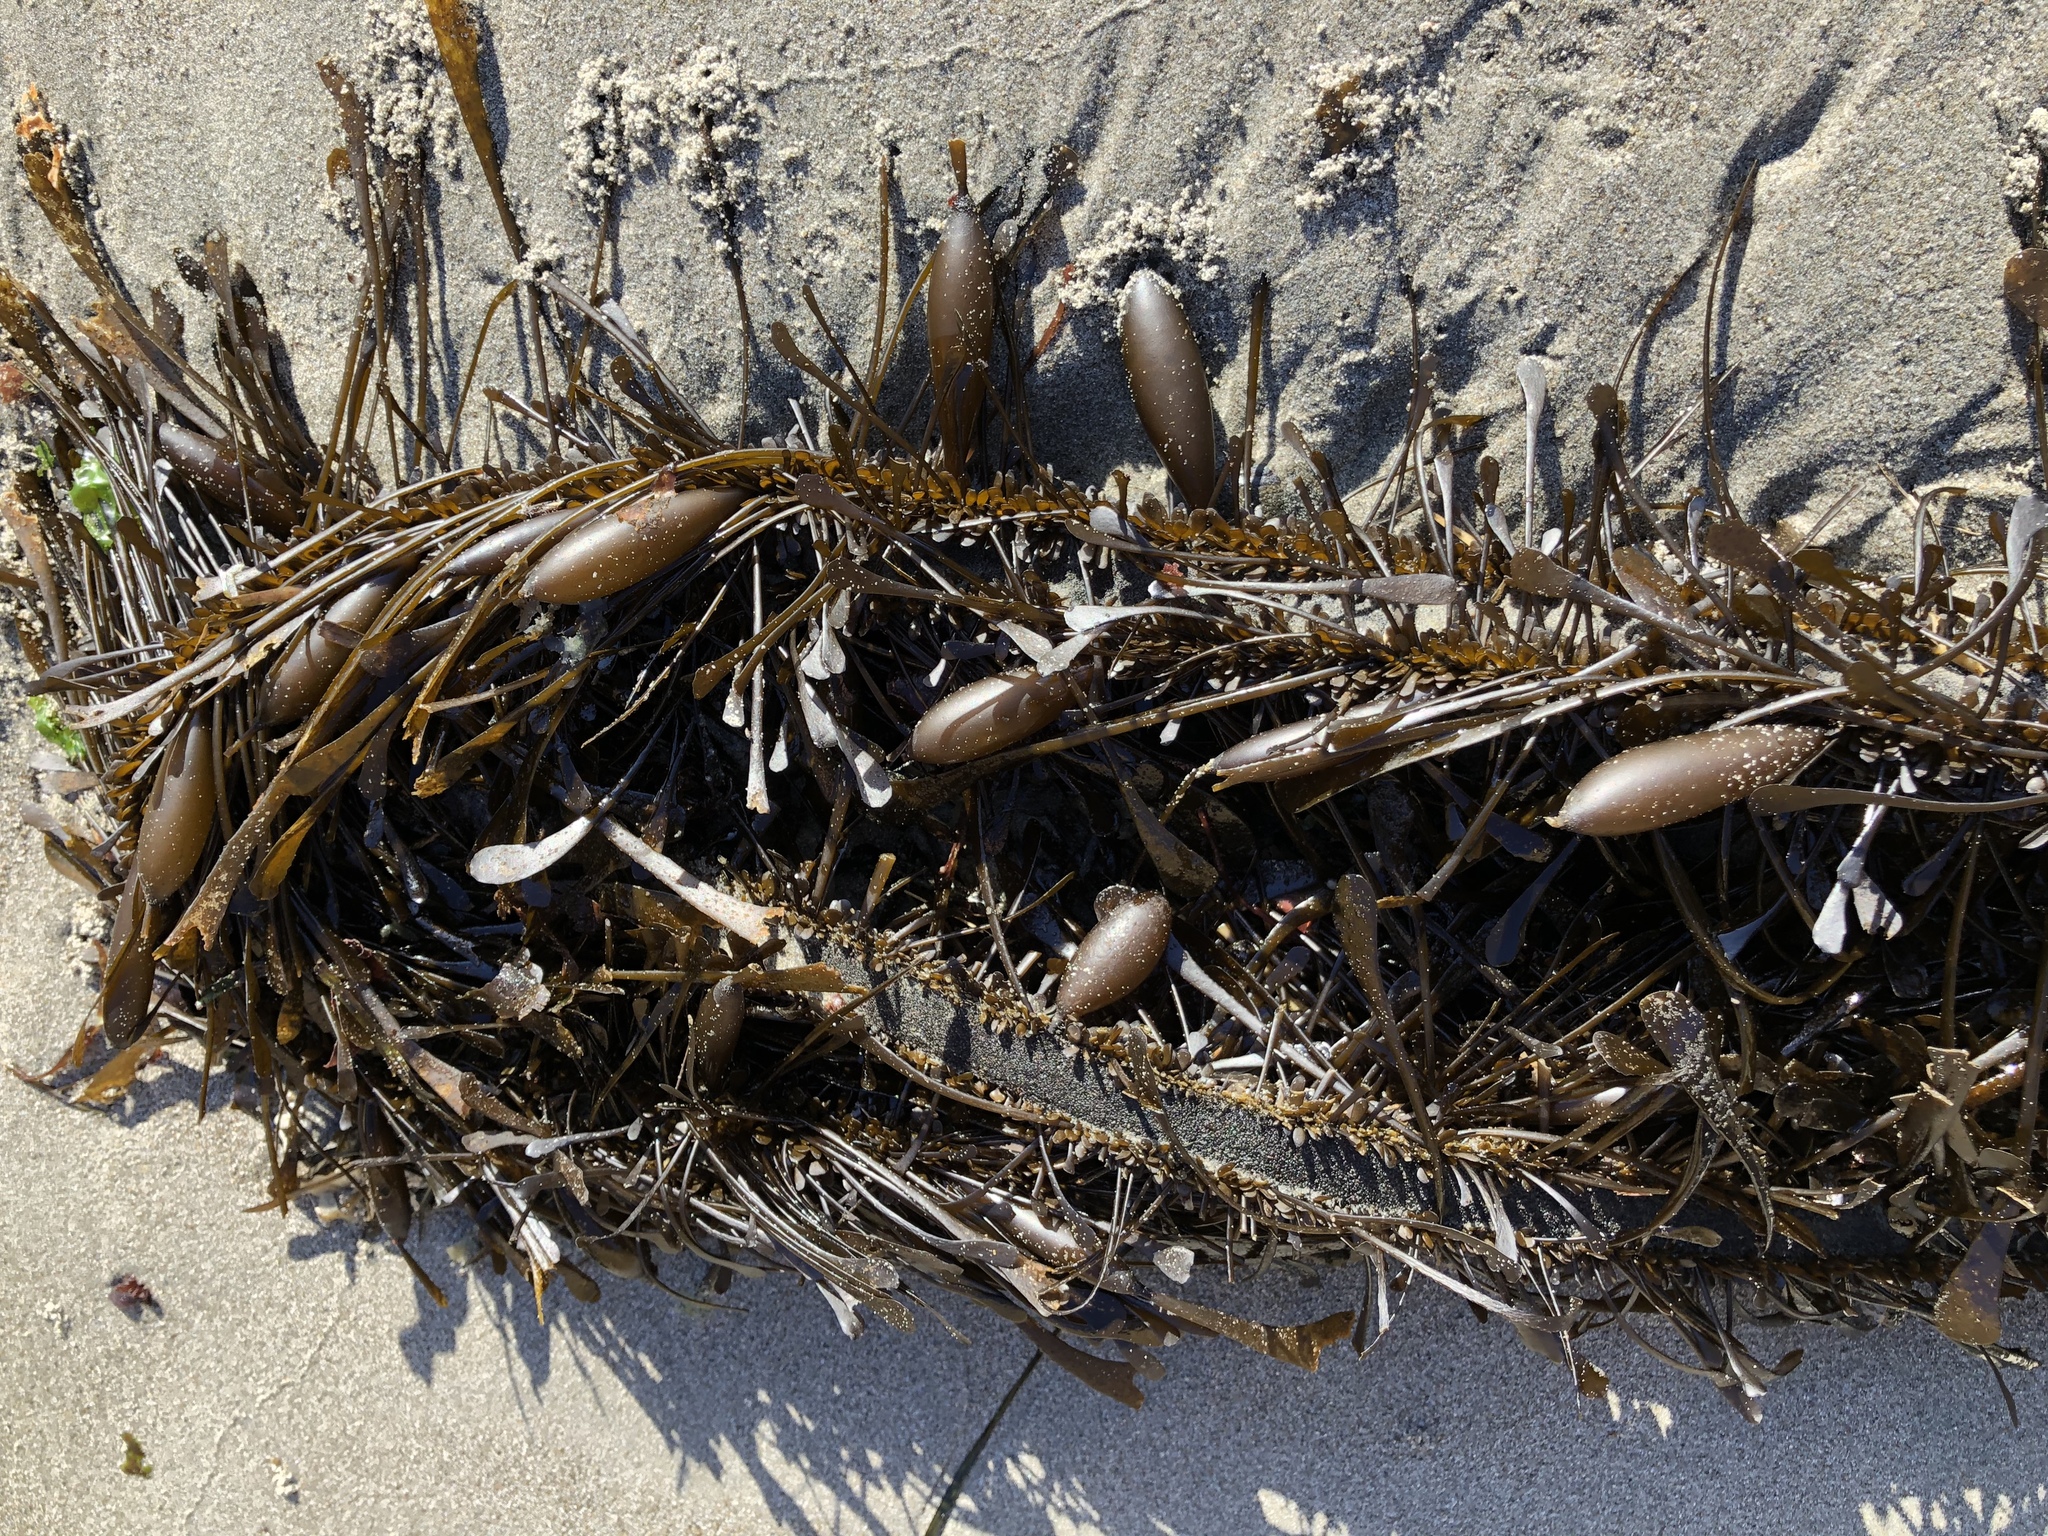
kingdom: Chromista
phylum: Ochrophyta
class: Phaeophyceae
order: Laminariales
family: Lessoniaceae
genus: Egregia
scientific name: Egregia menziesii
